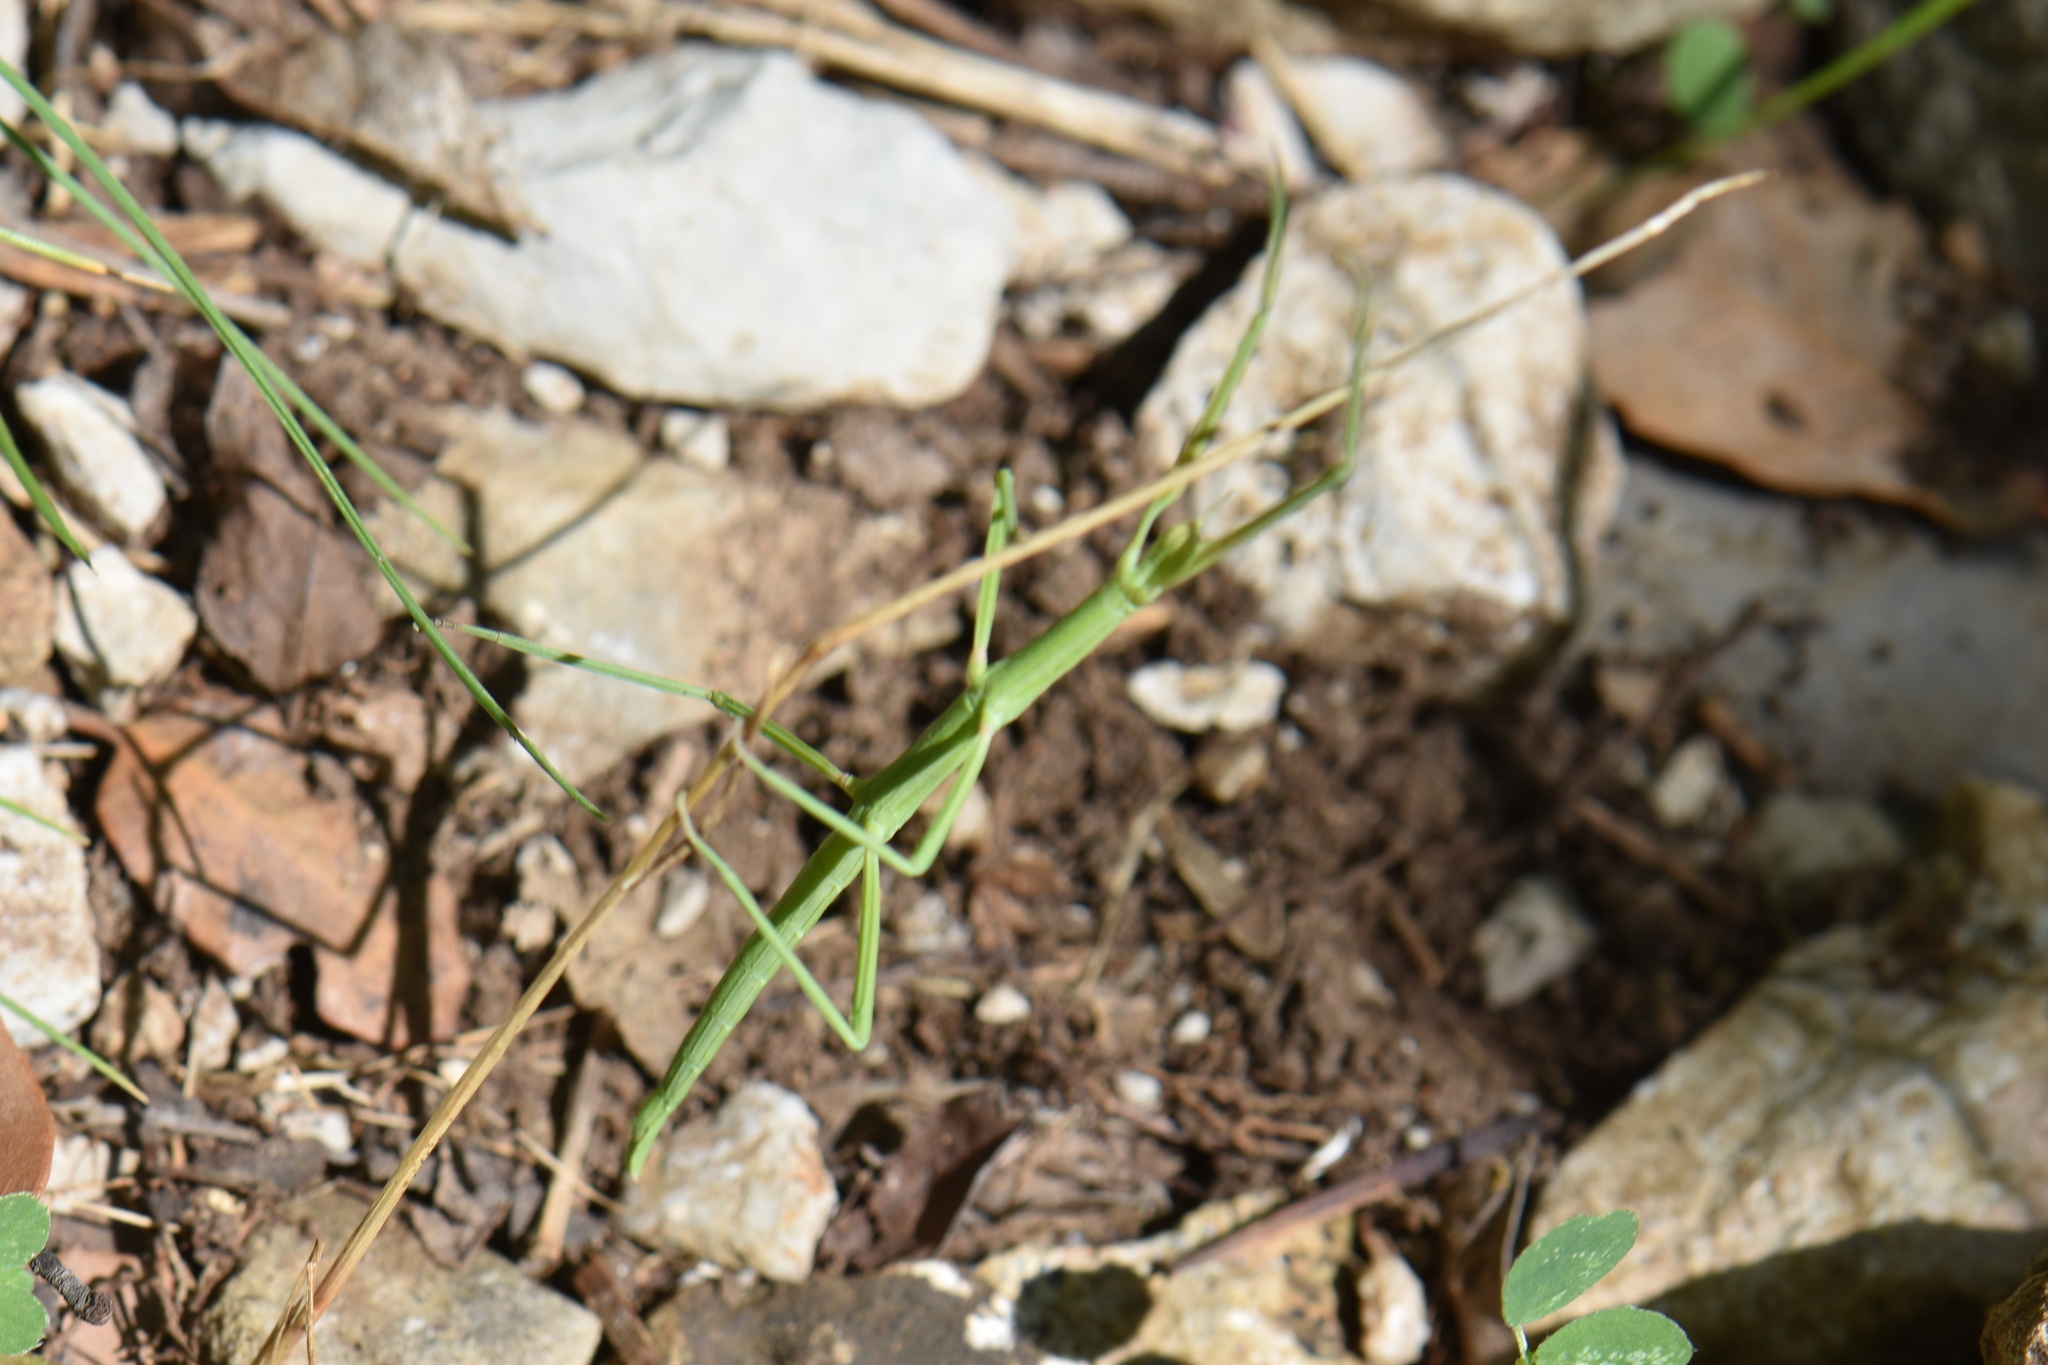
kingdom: Animalia
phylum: Arthropoda
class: Insecta
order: Phasmida
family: Bacillidae
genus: Clonopsis
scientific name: Clonopsis gallica
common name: French stick insect
